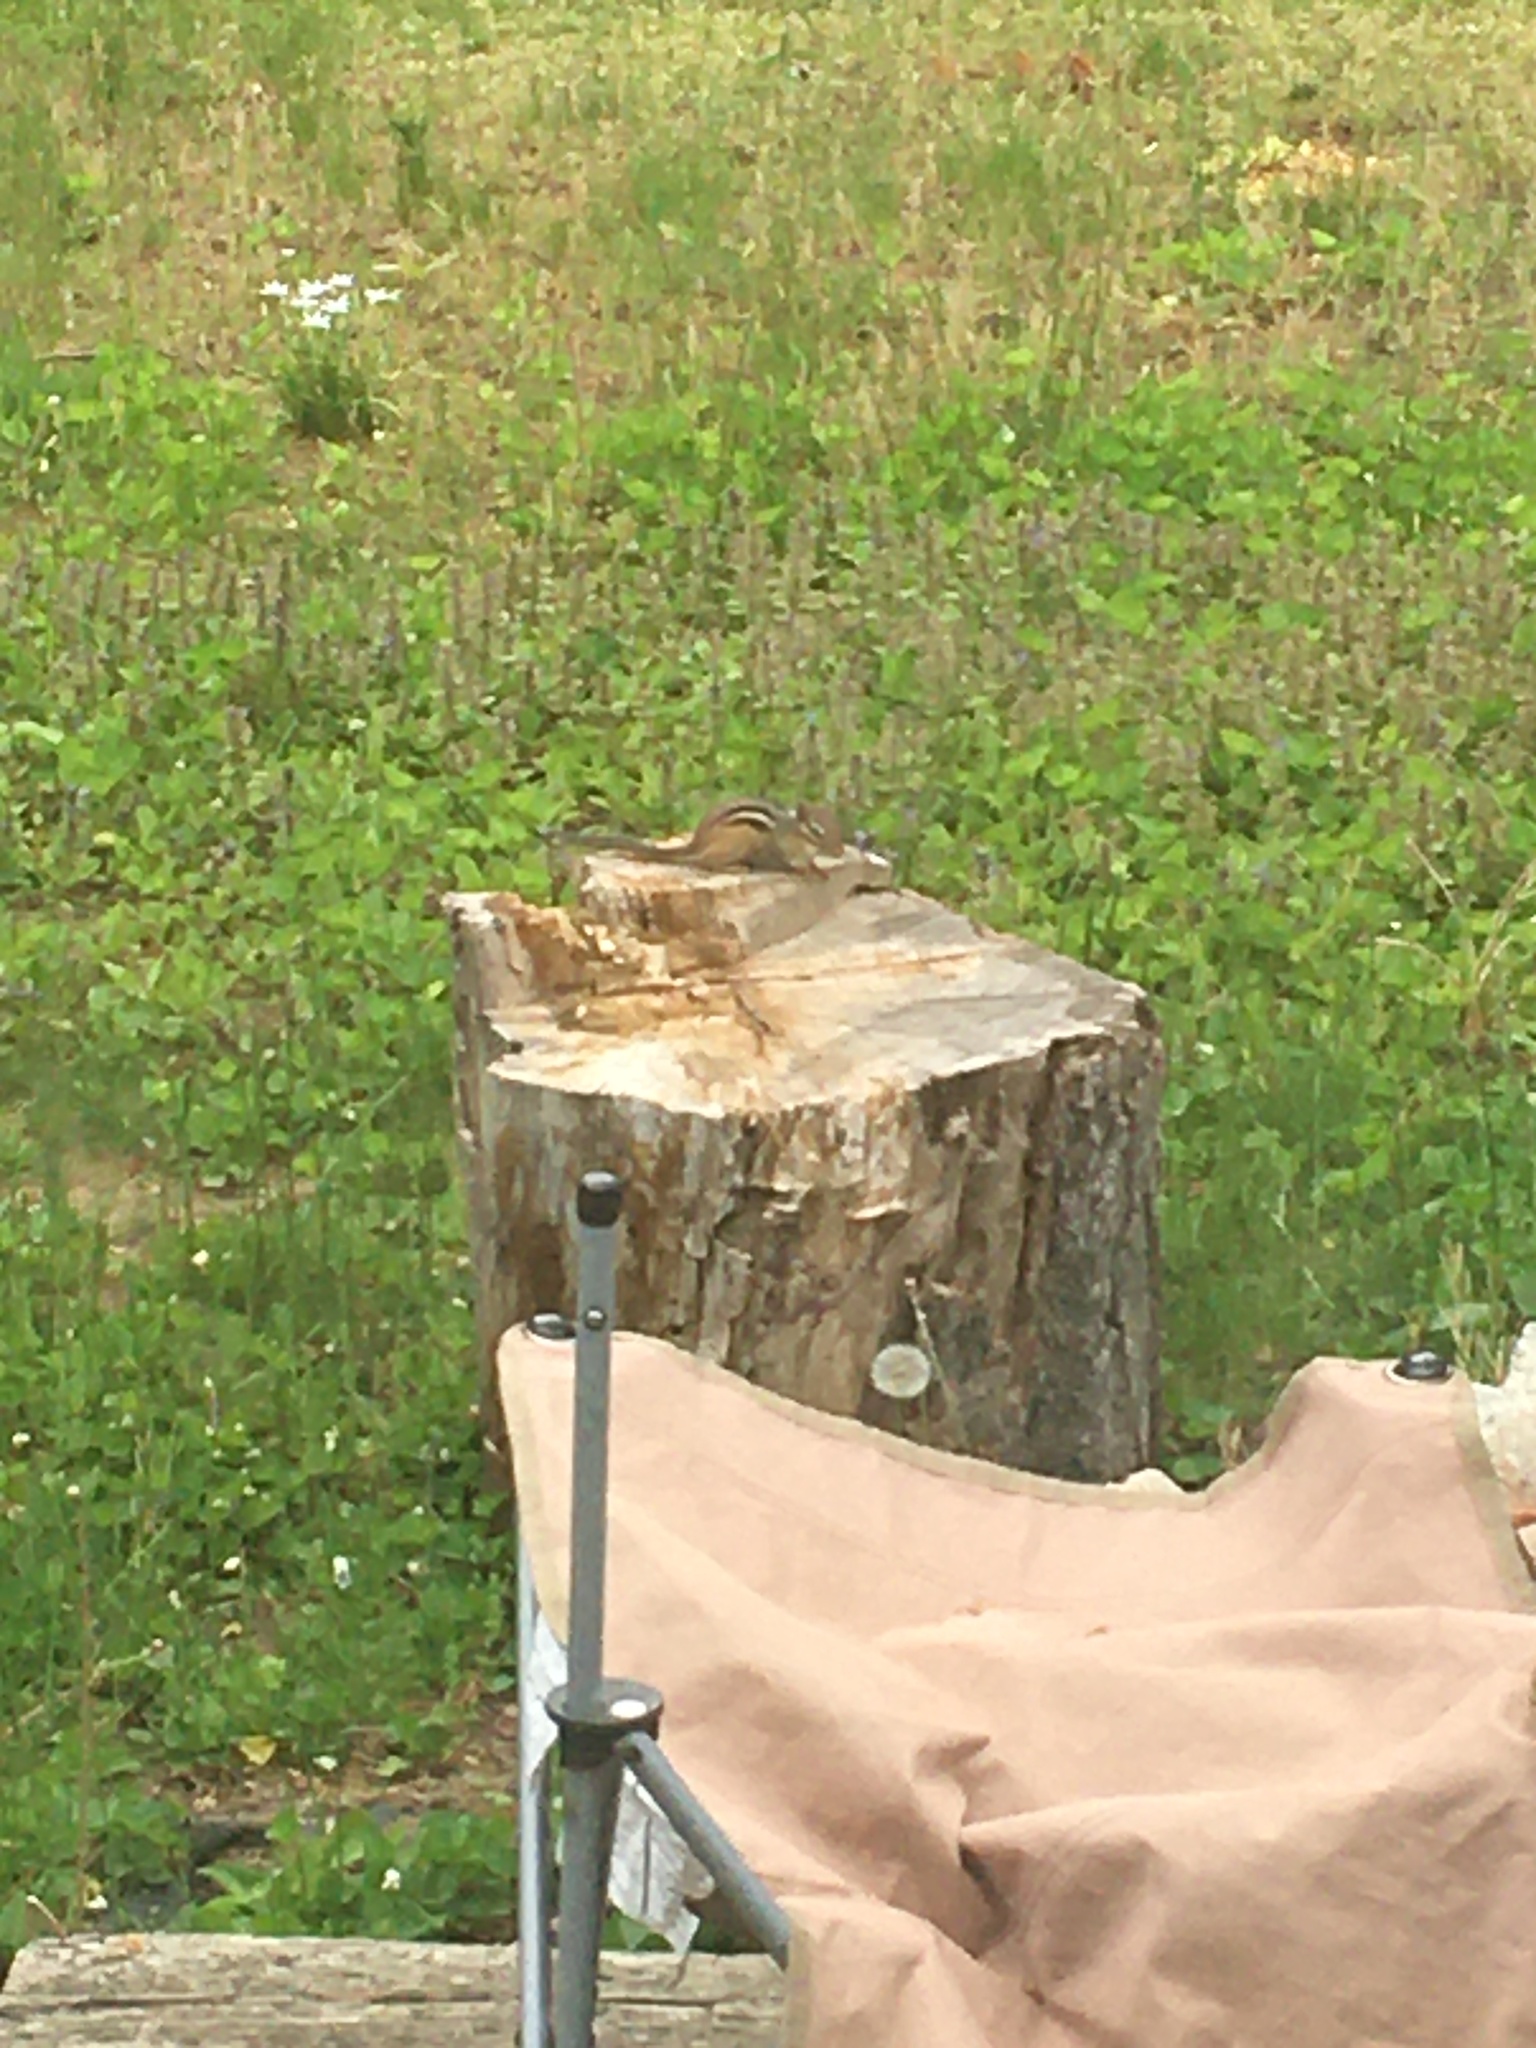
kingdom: Animalia
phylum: Chordata
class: Mammalia
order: Rodentia
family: Sciuridae
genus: Tamias
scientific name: Tamias striatus
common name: Eastern chipmunk
